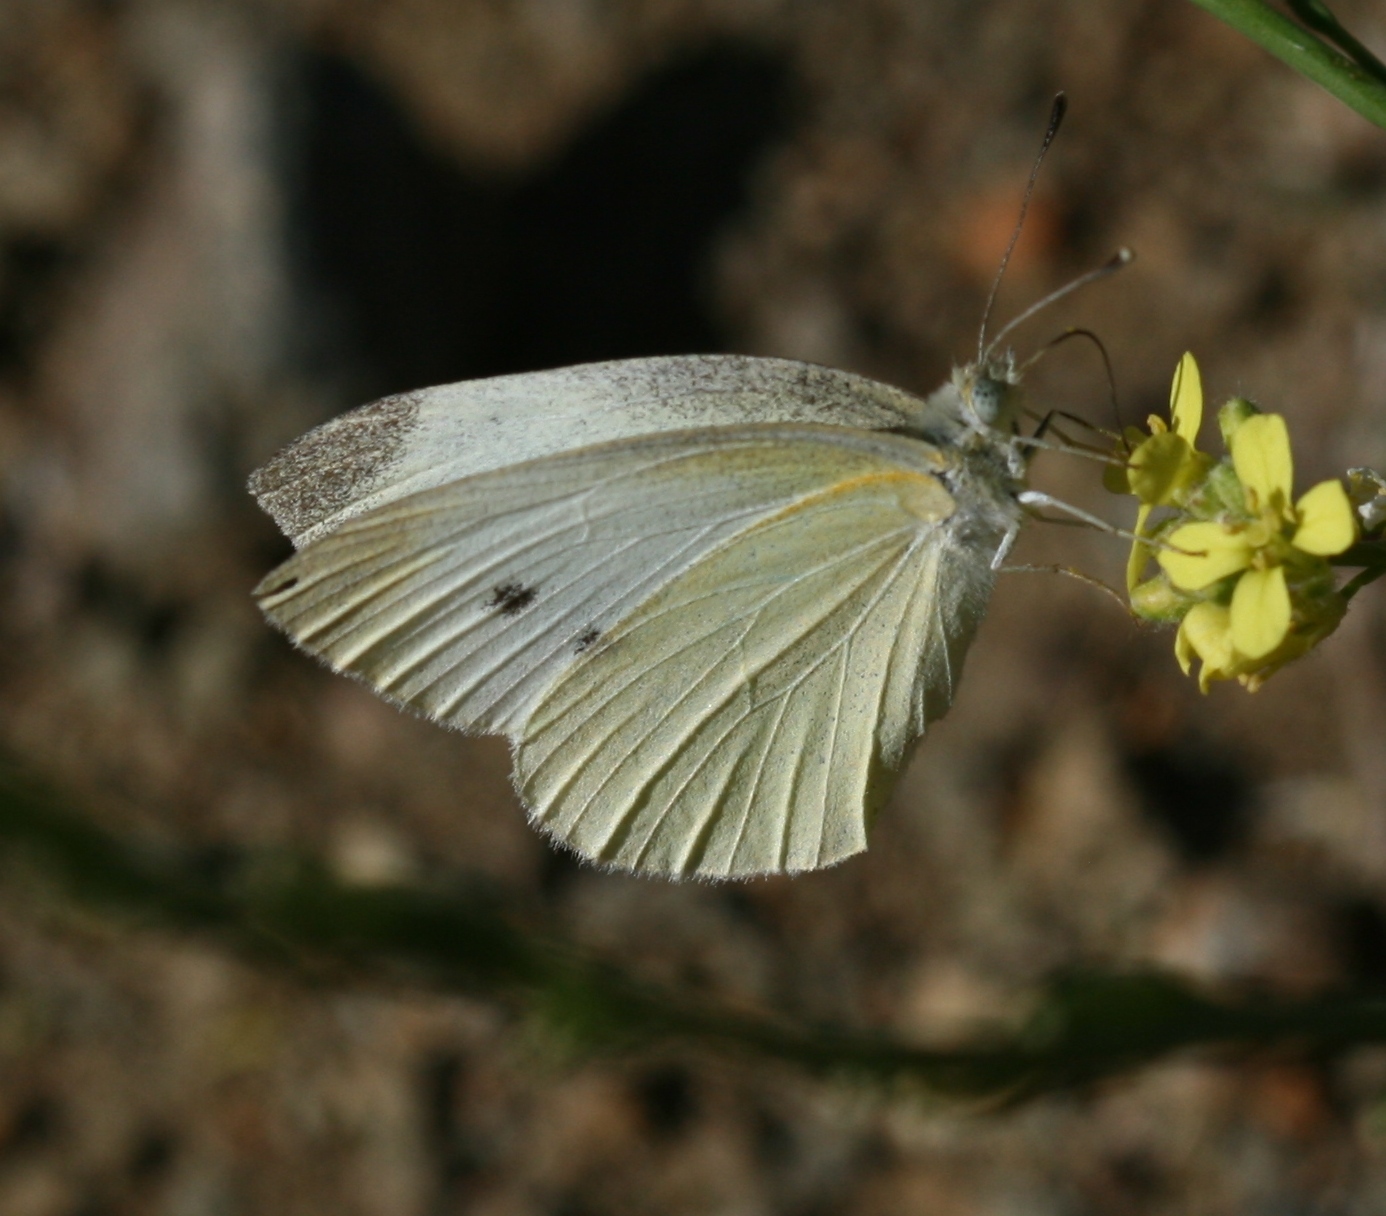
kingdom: Animalia
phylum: Arthropoda
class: Insecta
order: Lepidoptera
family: Pieridae
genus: Pieris
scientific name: Pieris rapae
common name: Small white
